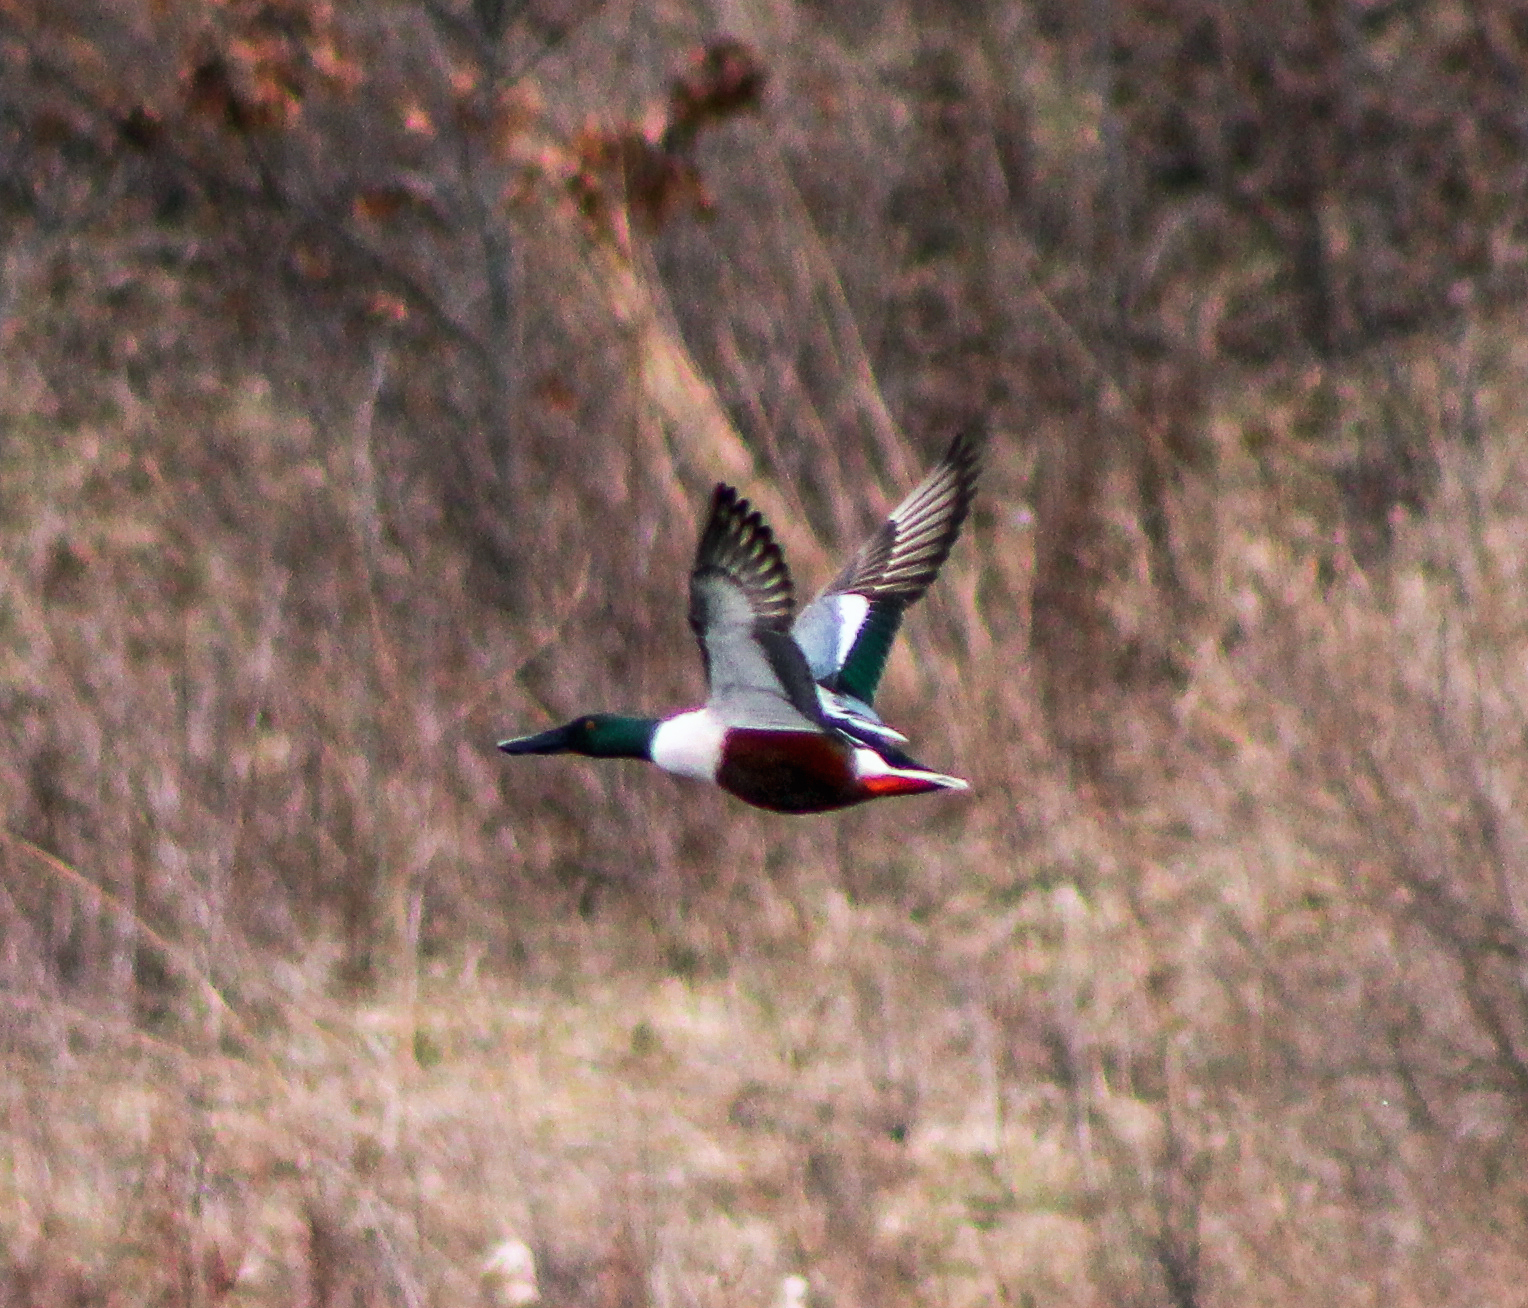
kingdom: Animalia
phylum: Chordata
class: Aves
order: Anseriformes
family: Anatidae
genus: Spatula
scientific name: Spatula clypeata
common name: Northern shoveler
